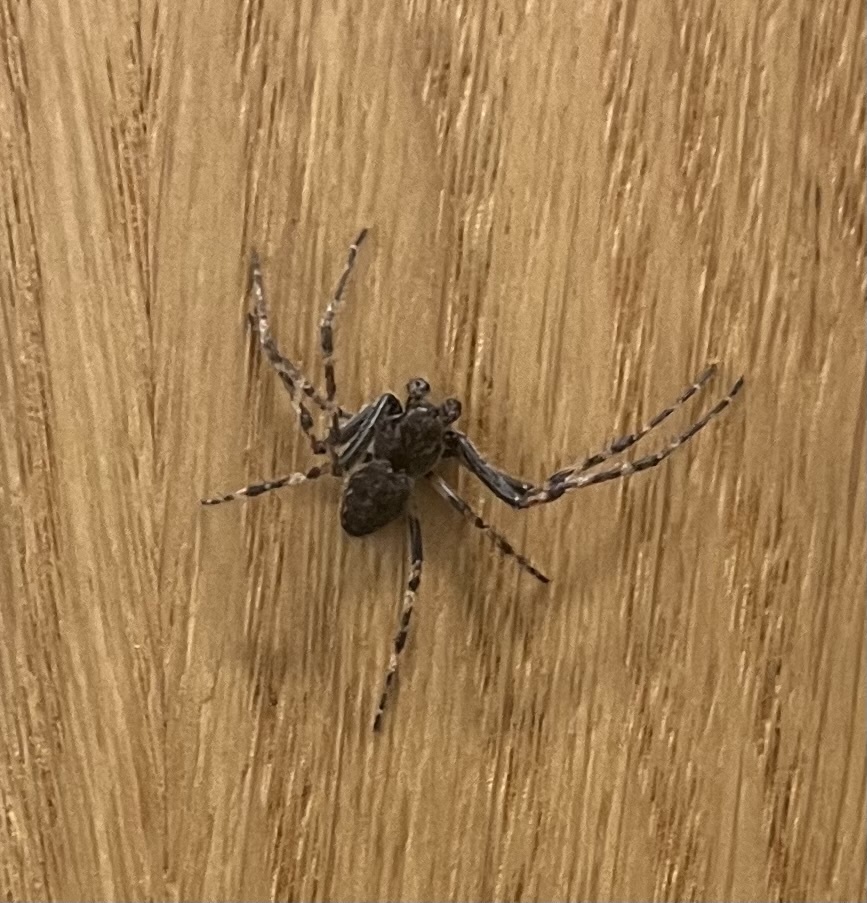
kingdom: Animalia
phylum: Arthropoda
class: Arachnida
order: Araneae
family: Araneidae
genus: Nuctenea
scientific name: Nuctenea umbratica
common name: Toad spider
